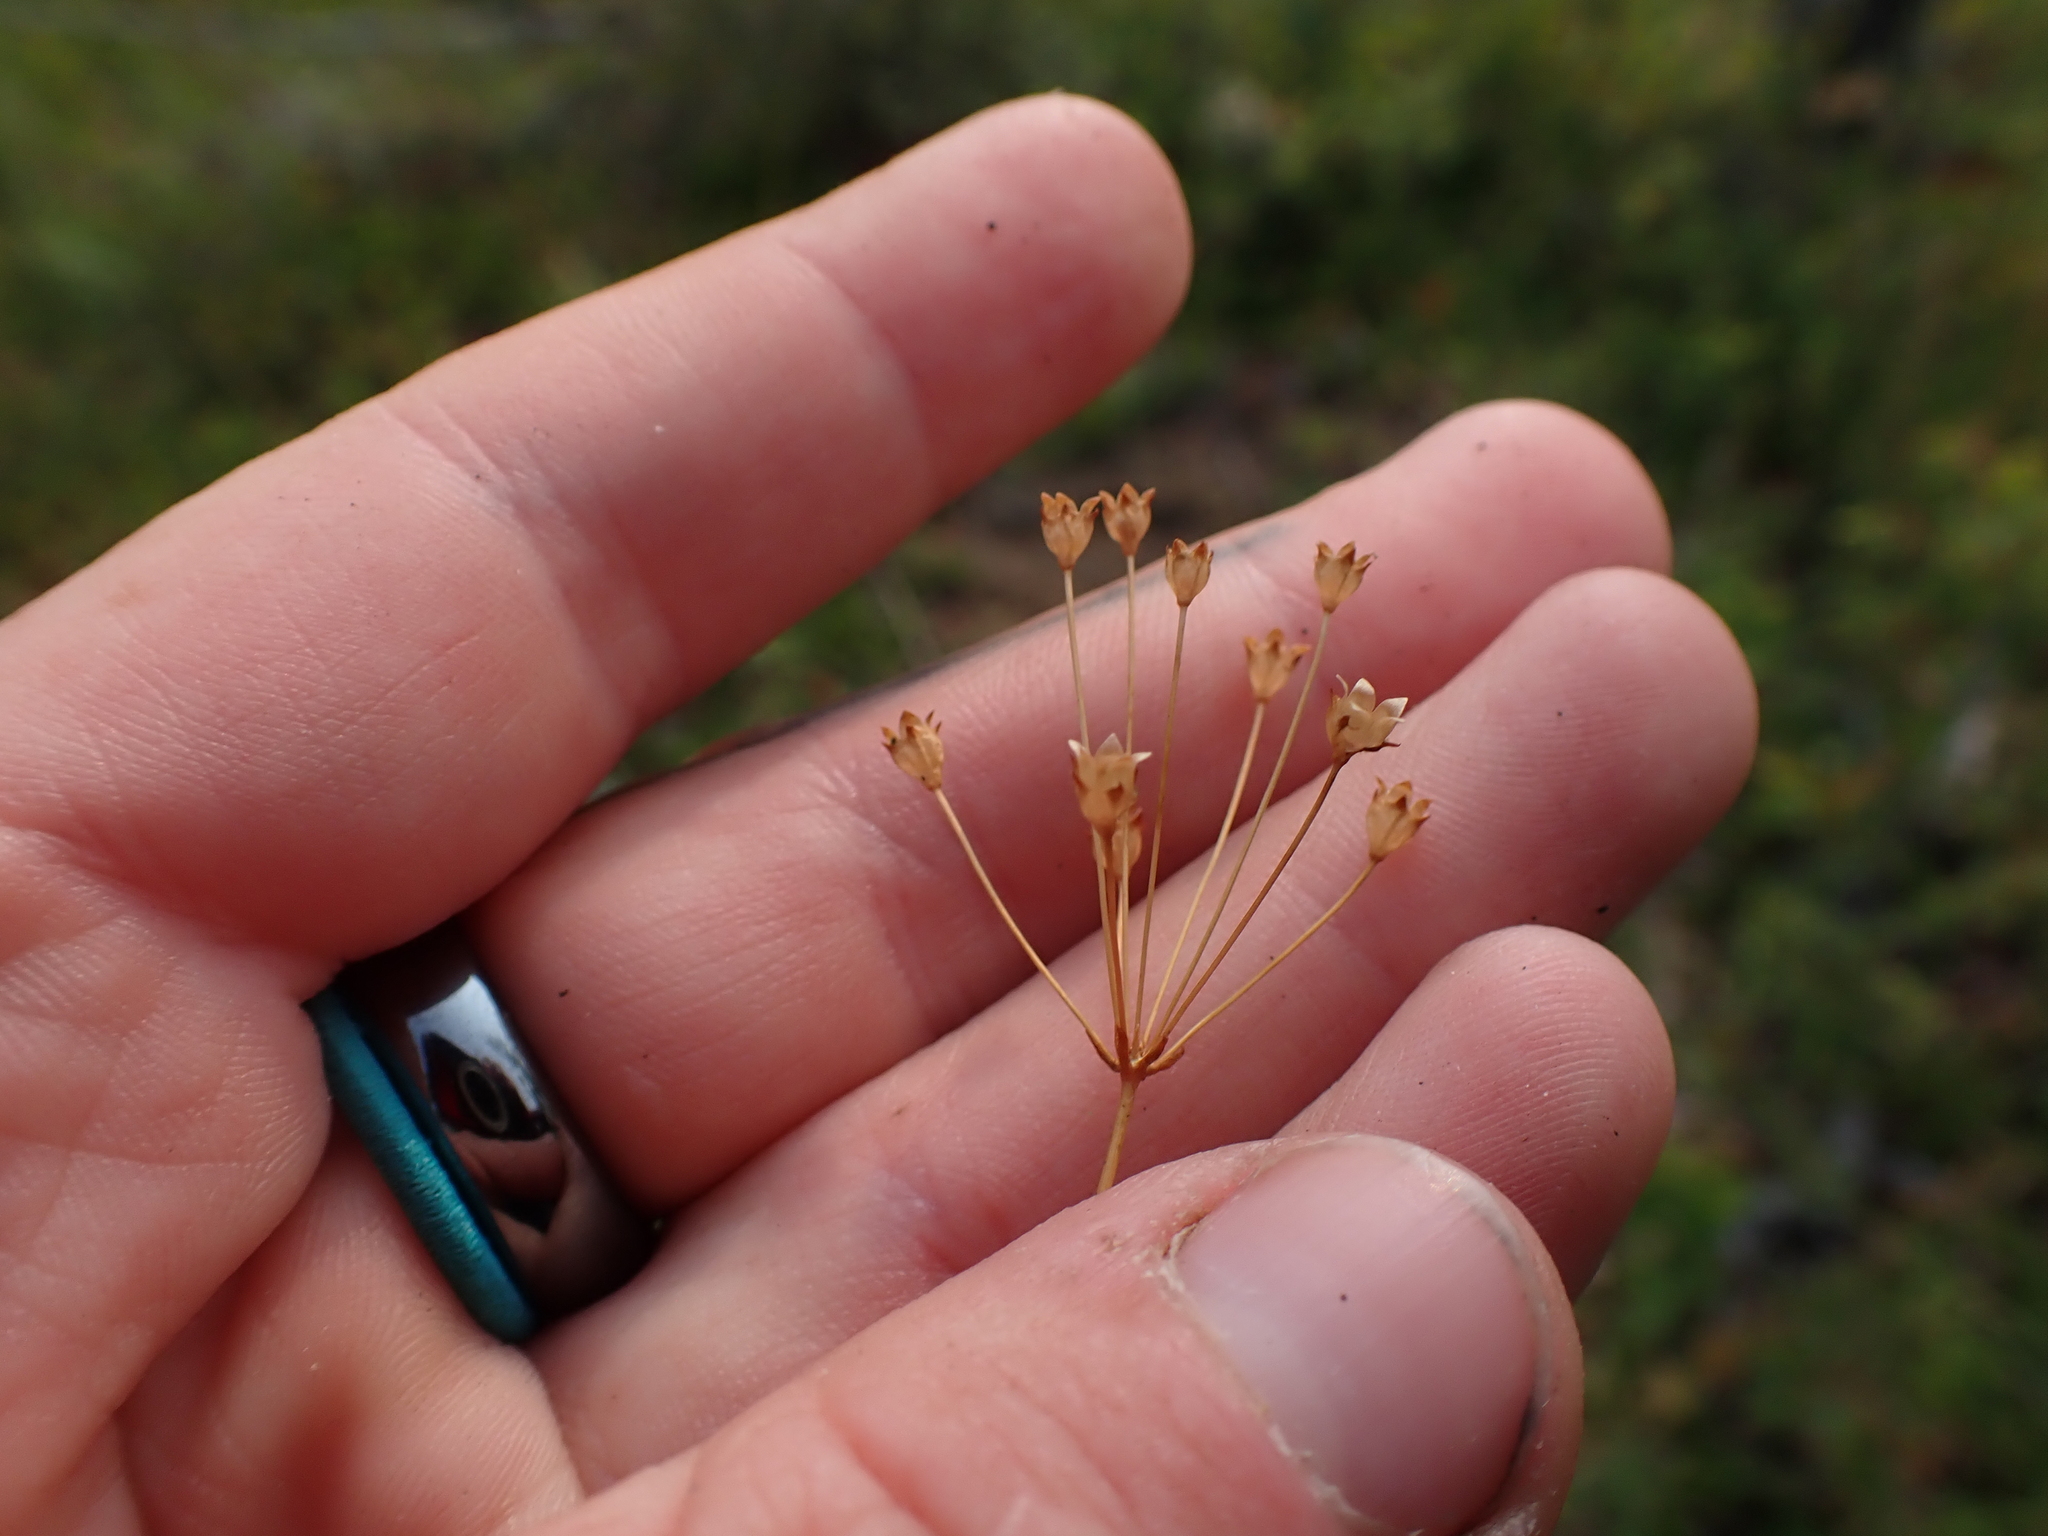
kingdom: Plantae
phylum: Tracheophyta
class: Magnoliopsida
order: Ericales
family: Primulaceae
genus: Androsace
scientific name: Androsace septentrionalis
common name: Hairy northern fairy-candelabra
